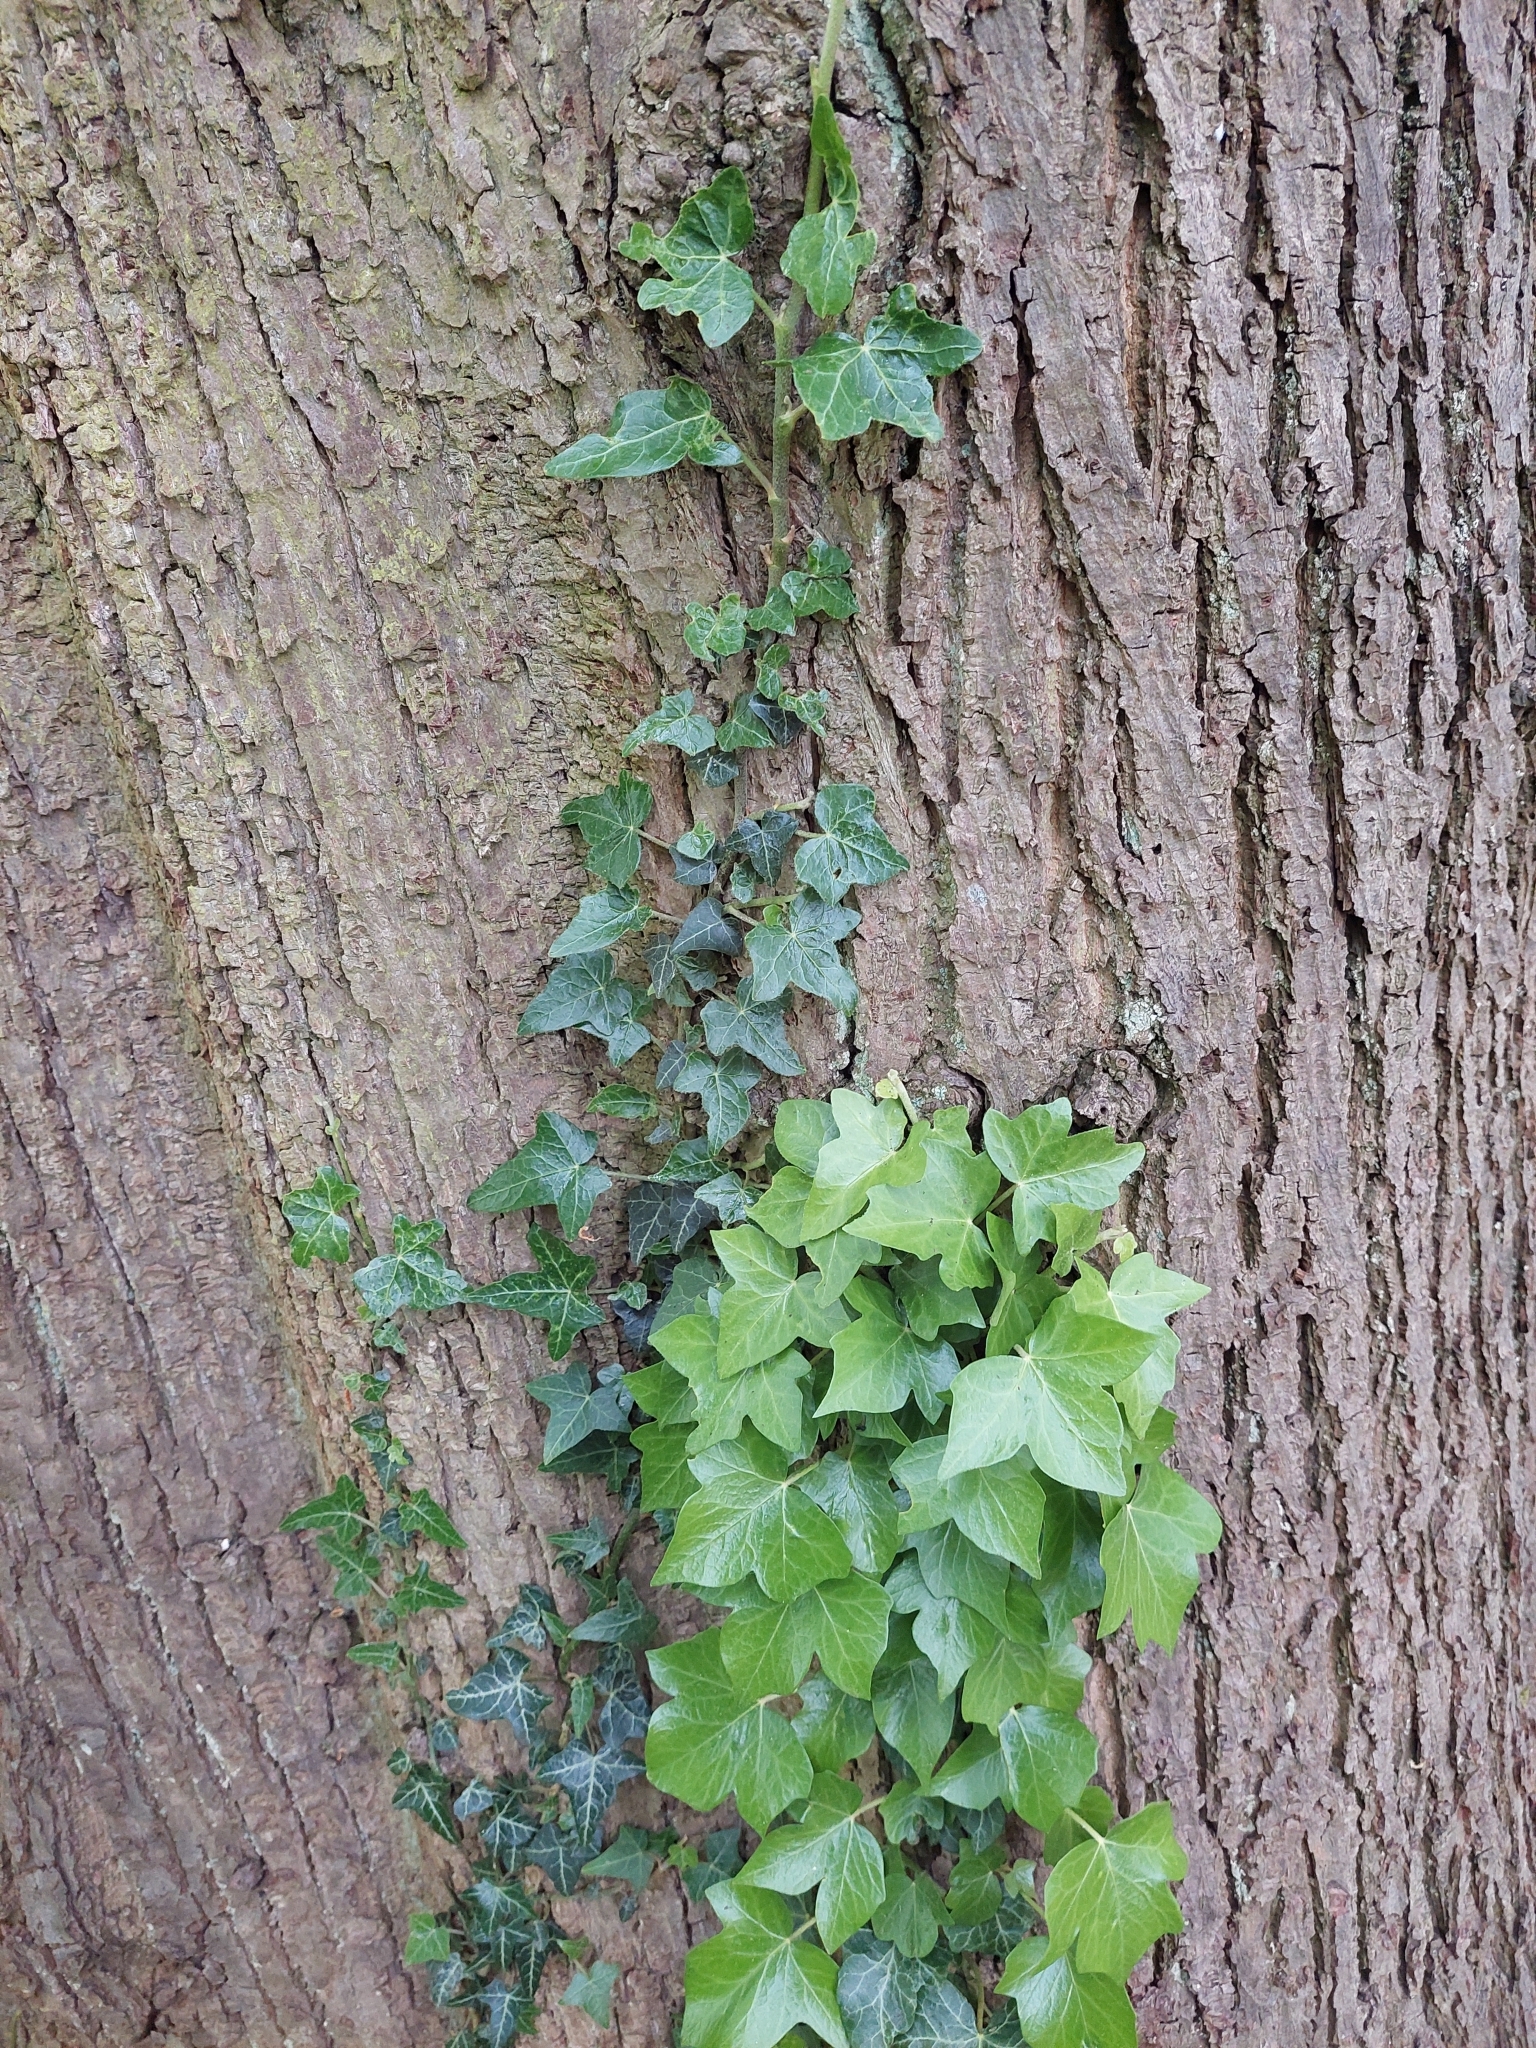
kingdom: Plantae
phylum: Tracheophyta
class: Magnoliopsida
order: Apiales
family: Araliaceae
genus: Hedera
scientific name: Hedera helix
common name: Ivy
